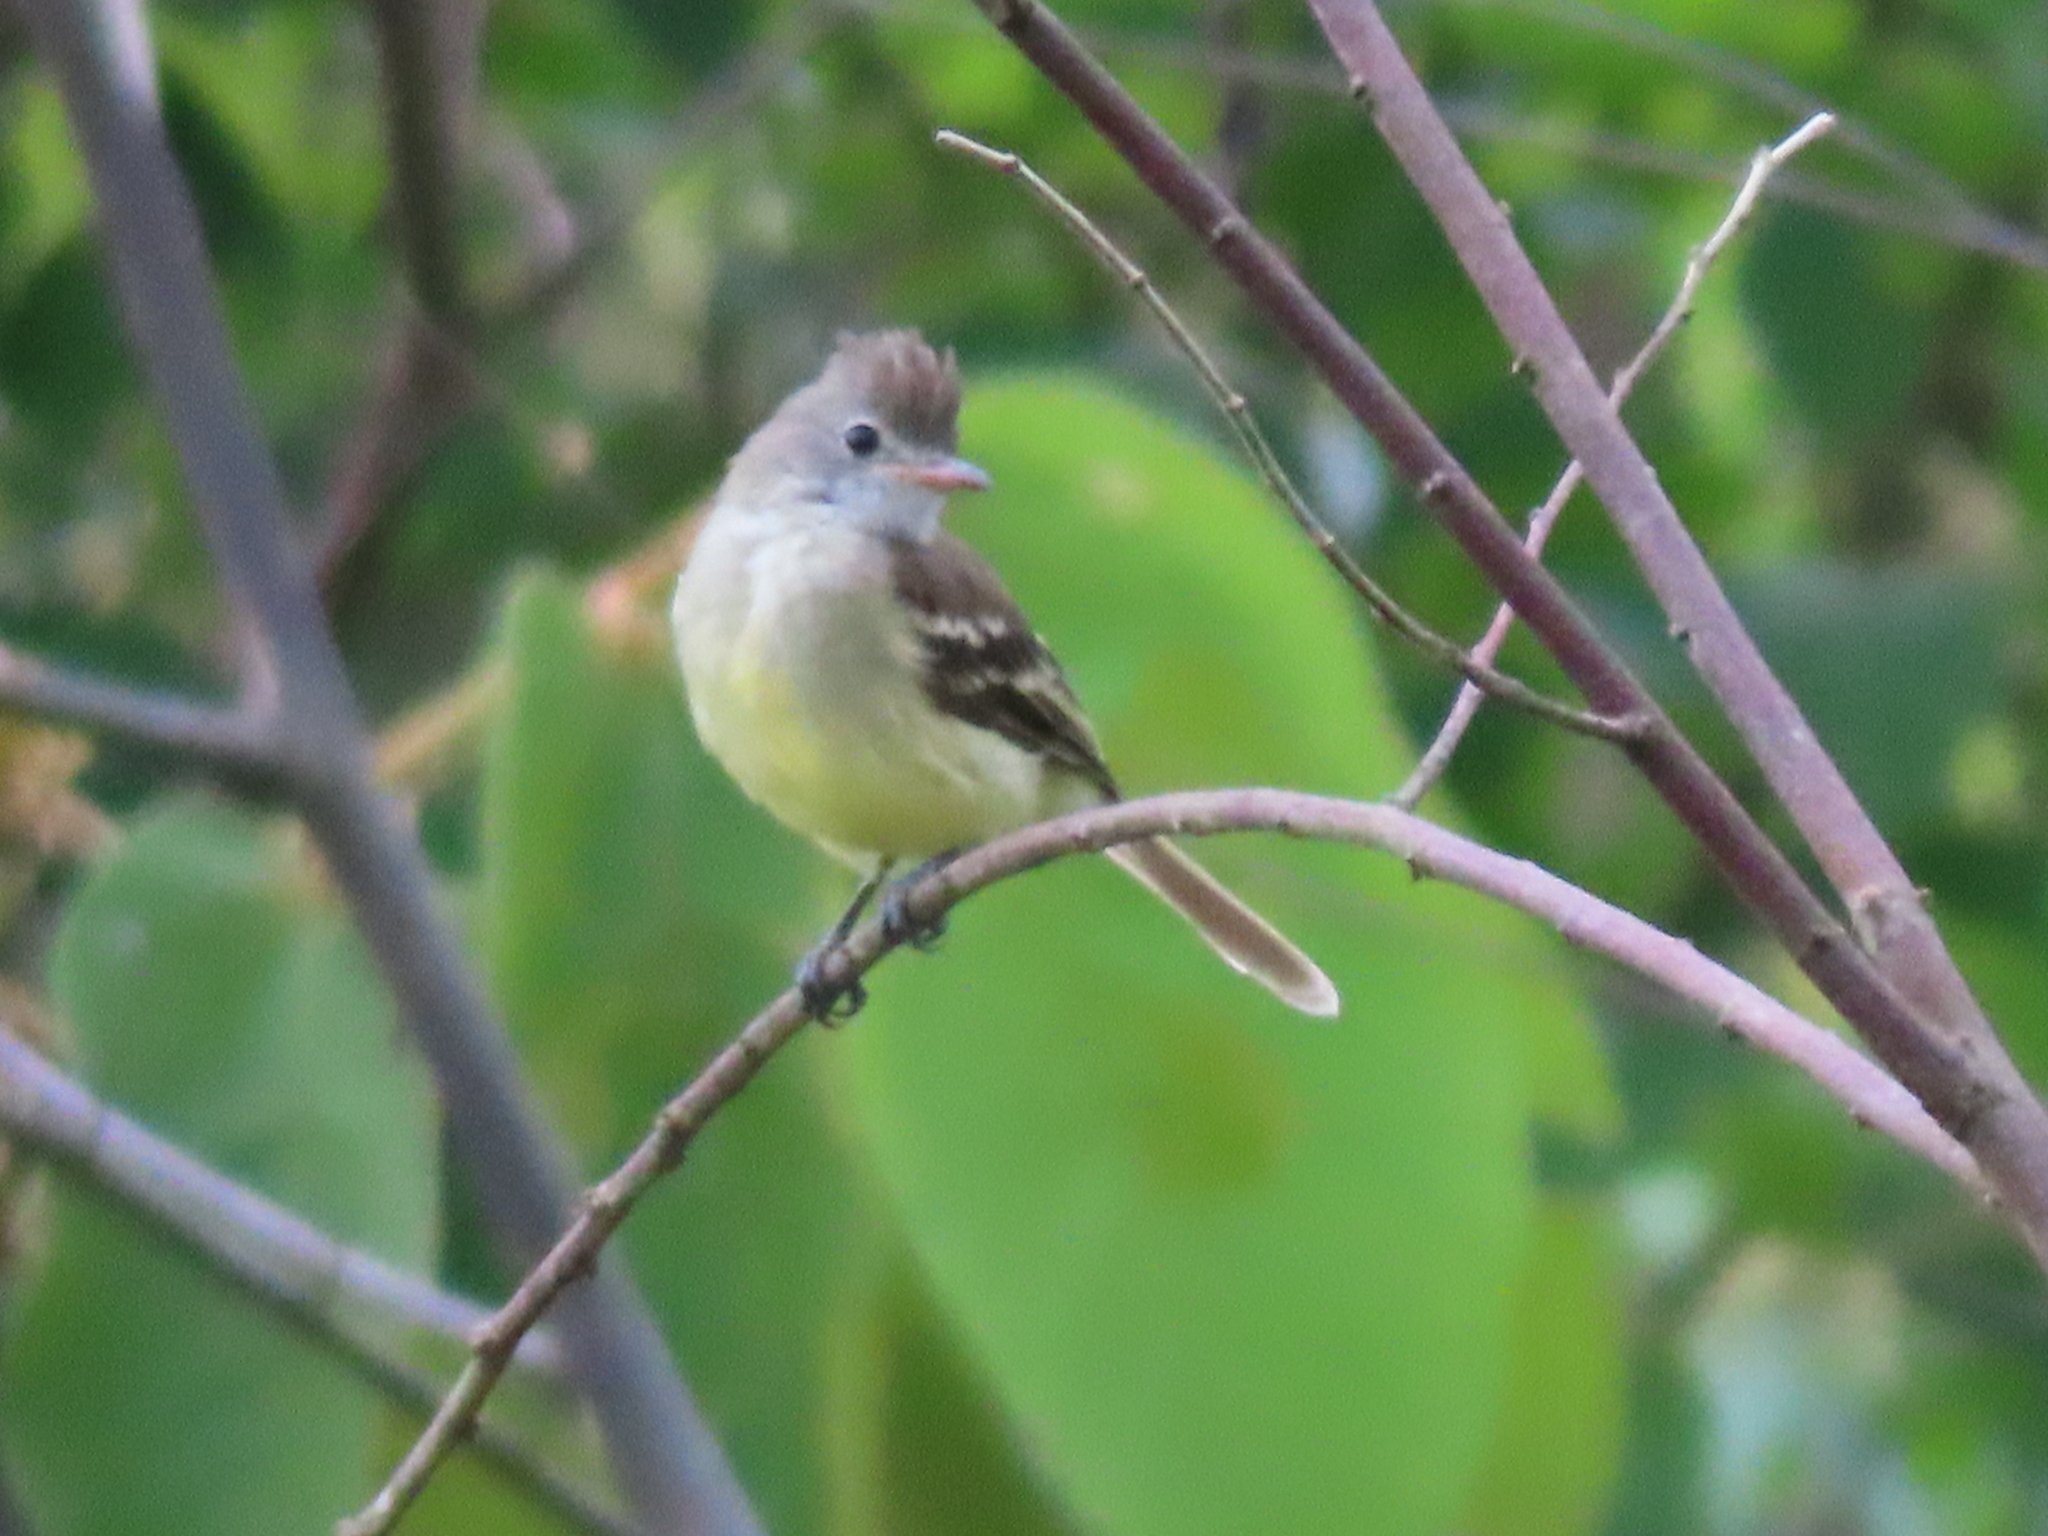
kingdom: Animalia
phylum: Chordata
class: Aves
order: Passeriformes
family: Tyrannidae
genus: Elaenia
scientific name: Elaenia flavogaster
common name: Yellow-bellied elaenia
